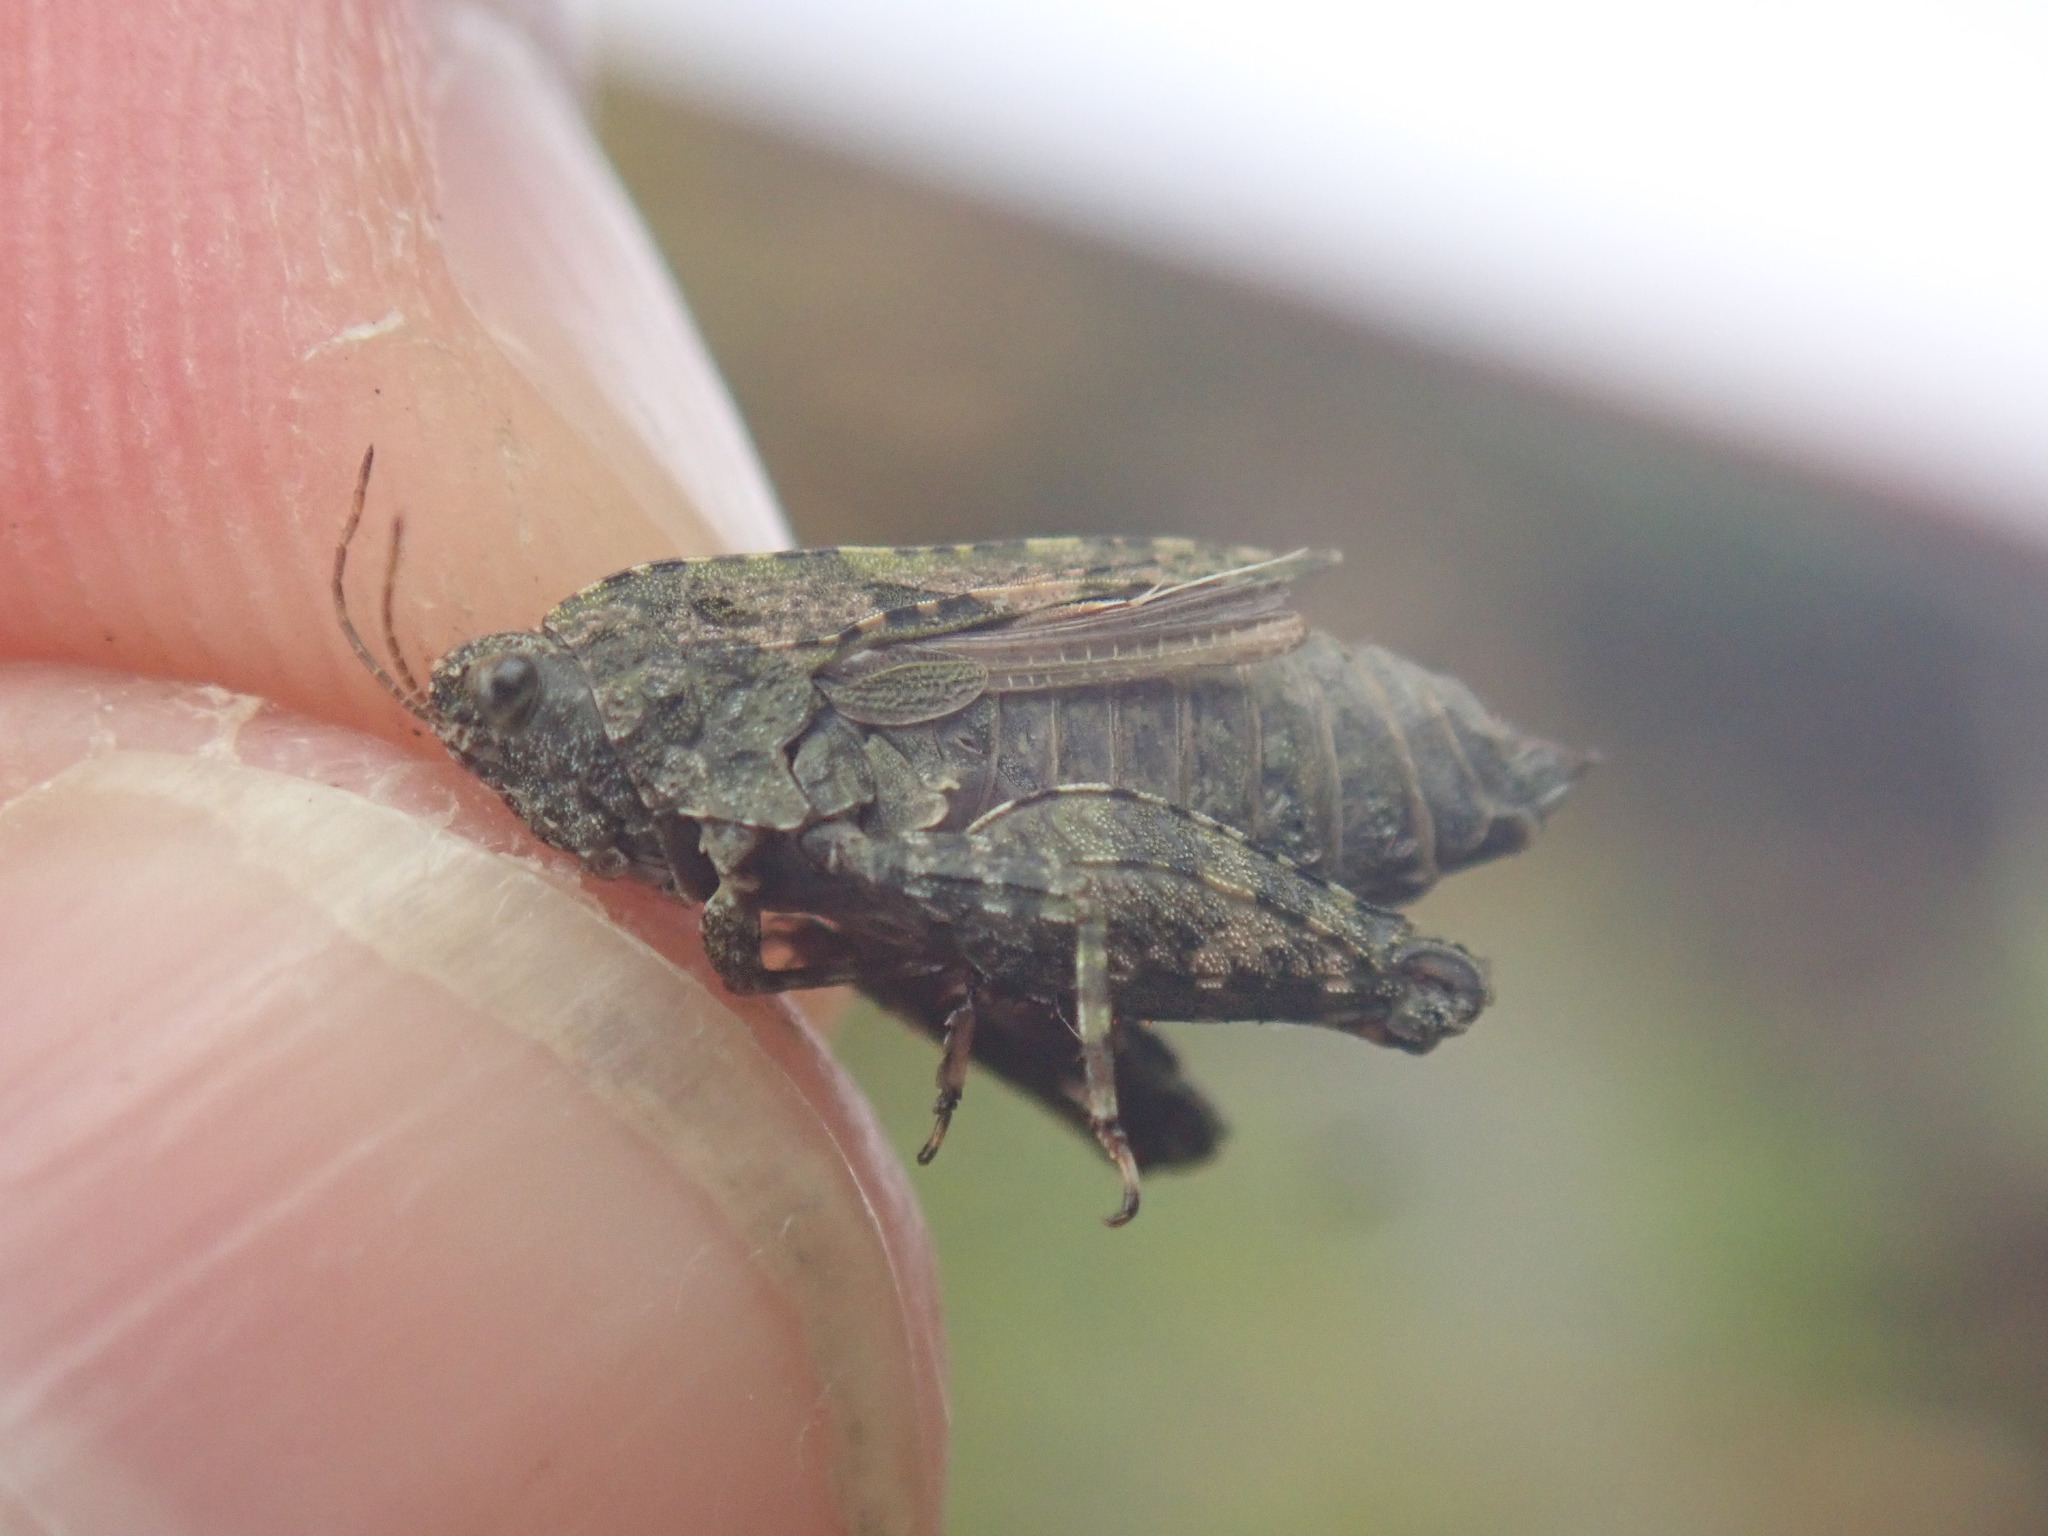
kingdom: Animalia
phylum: Arthropoda
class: Insecta
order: Orthoptera
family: Tetrigidae
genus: Tetrix
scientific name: Tetrix tenuicornis
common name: Long-horned groundhopper
